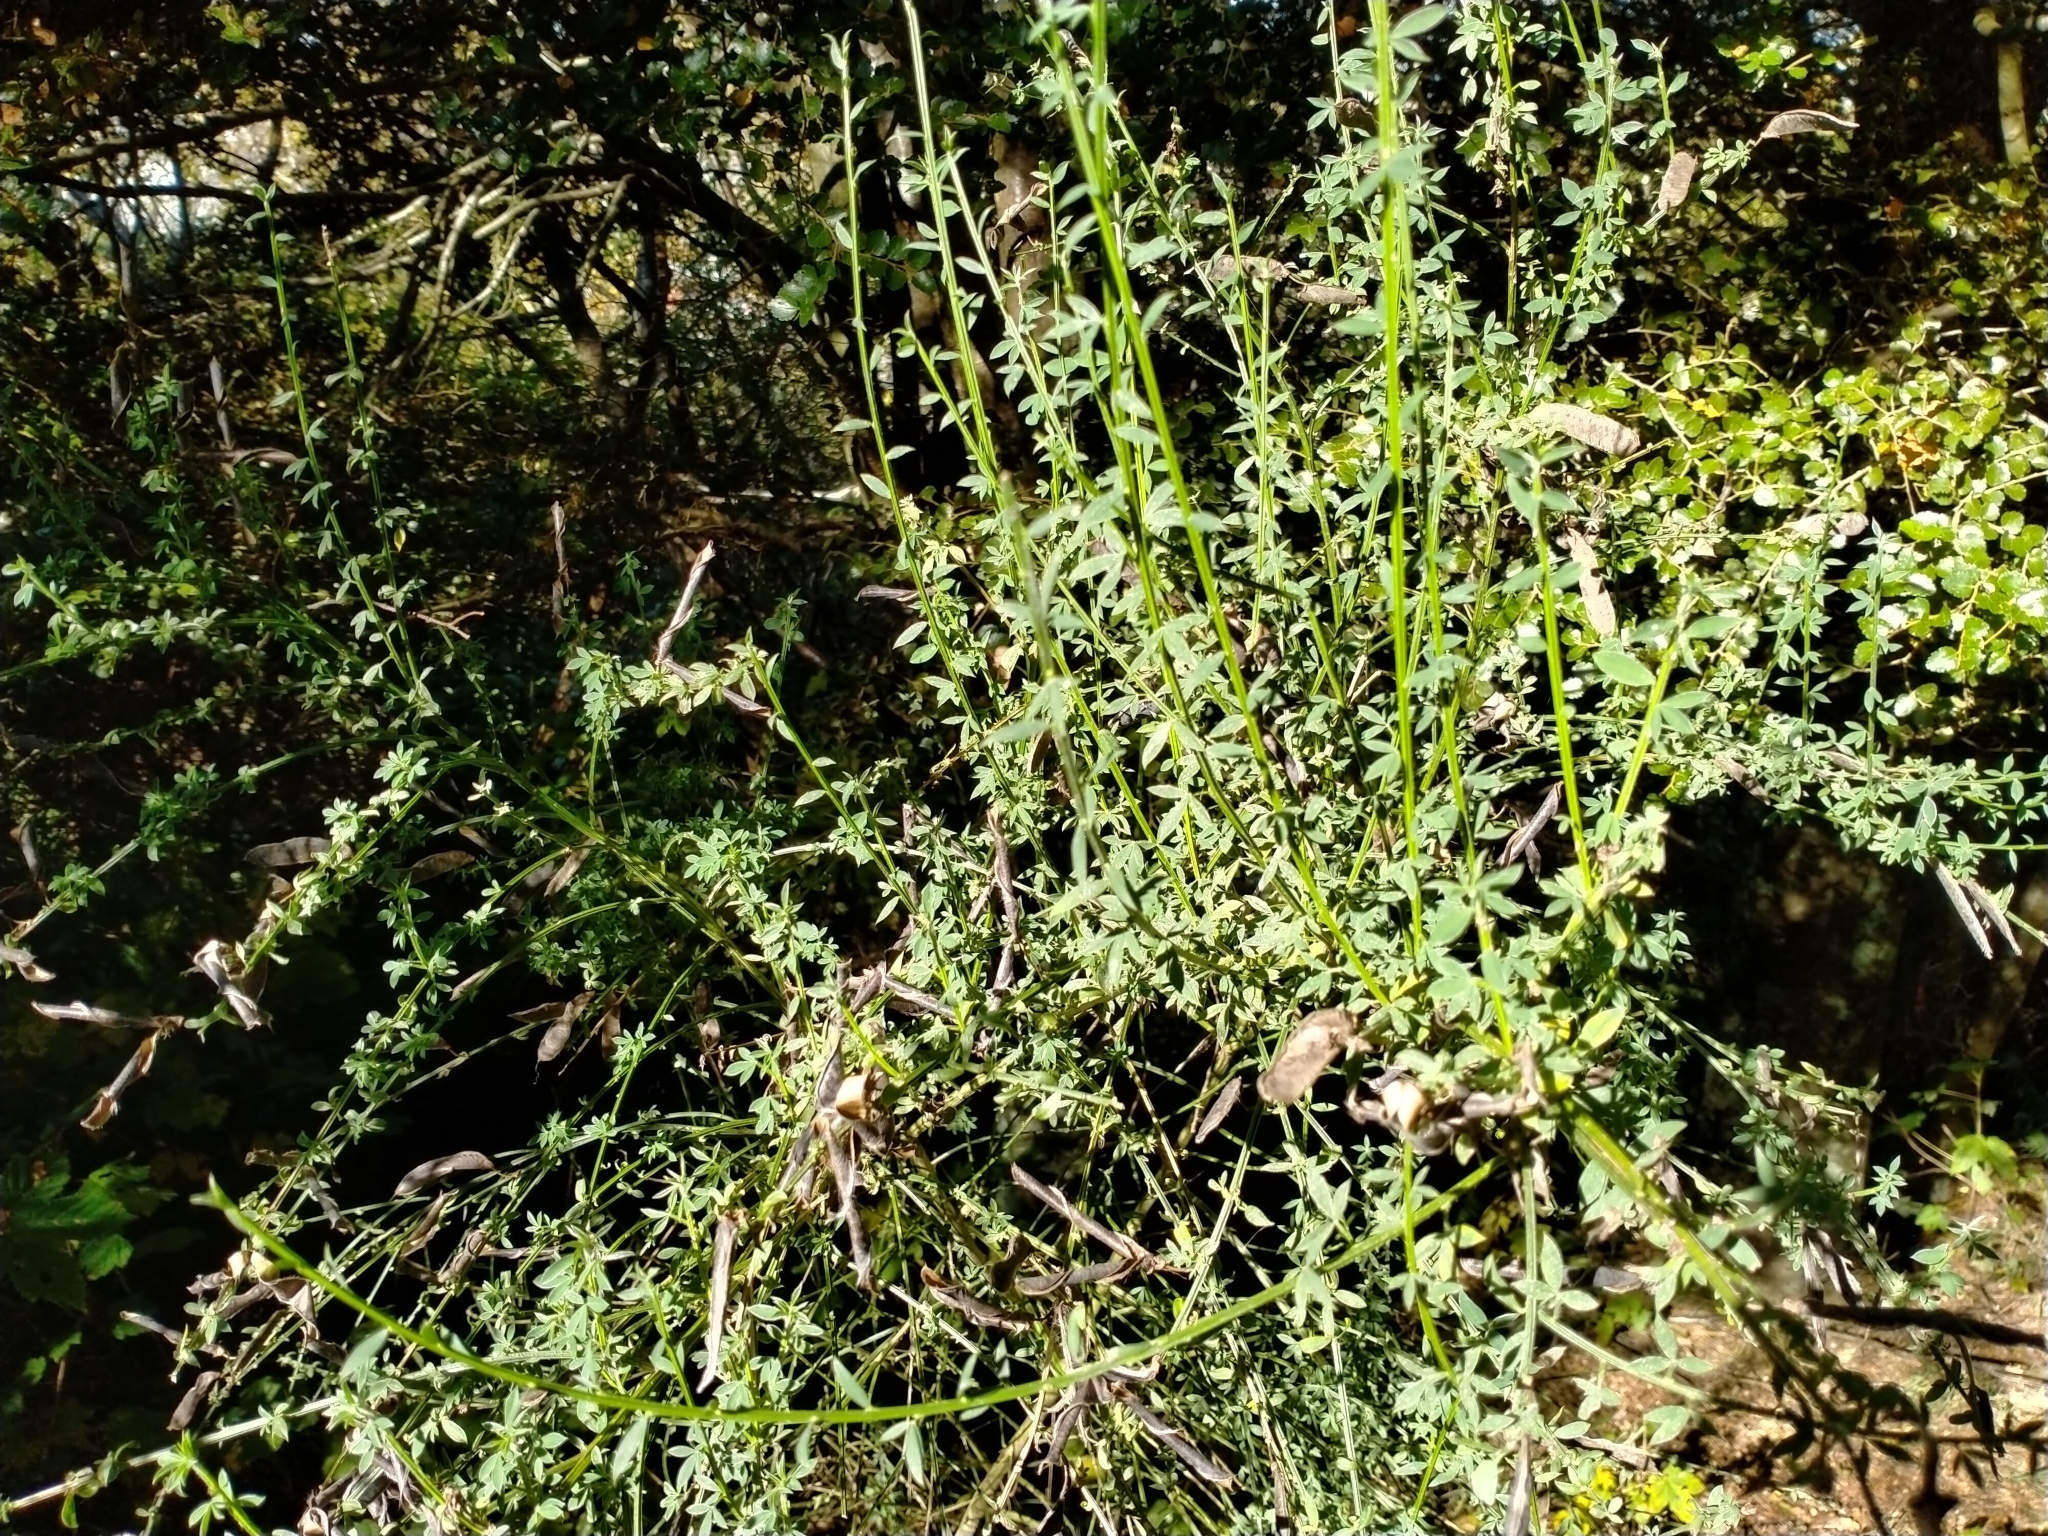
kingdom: Plantae
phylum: Tracheophyta
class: Magnoliopsida
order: Fabales
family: Fabaceae
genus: Cytisus
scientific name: Cytisus scoparius
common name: Scotch broom
